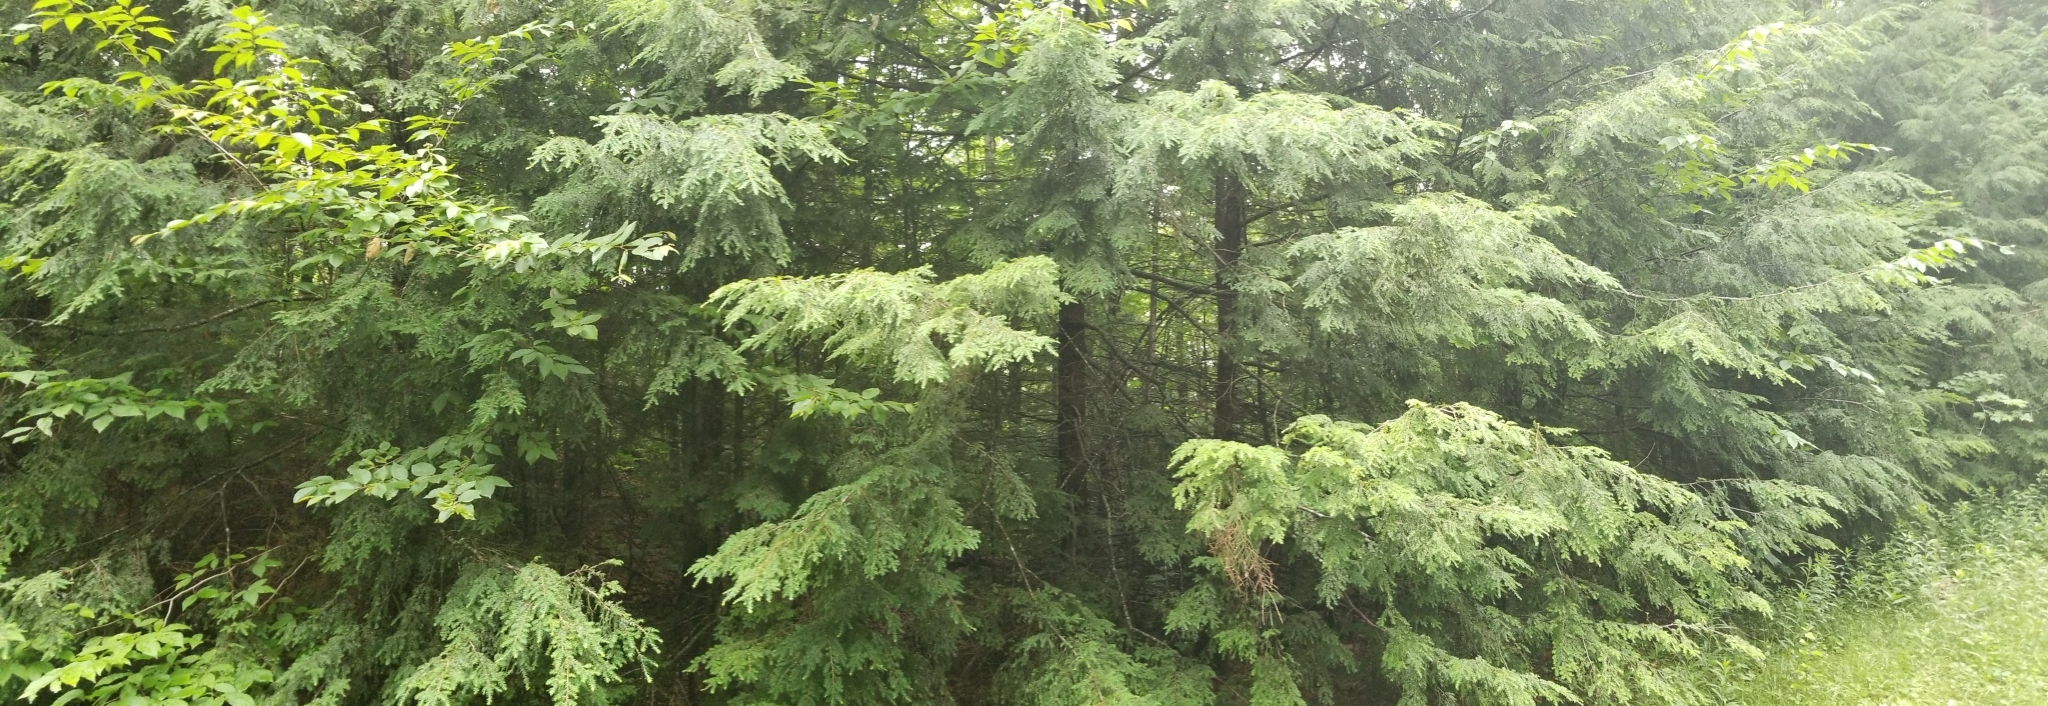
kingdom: Plantae
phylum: Tracheophyta
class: Pinopsida
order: Pinales
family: Pinaceae
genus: Tsuga
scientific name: Tsuga canadensis
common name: Eastern hemlock
